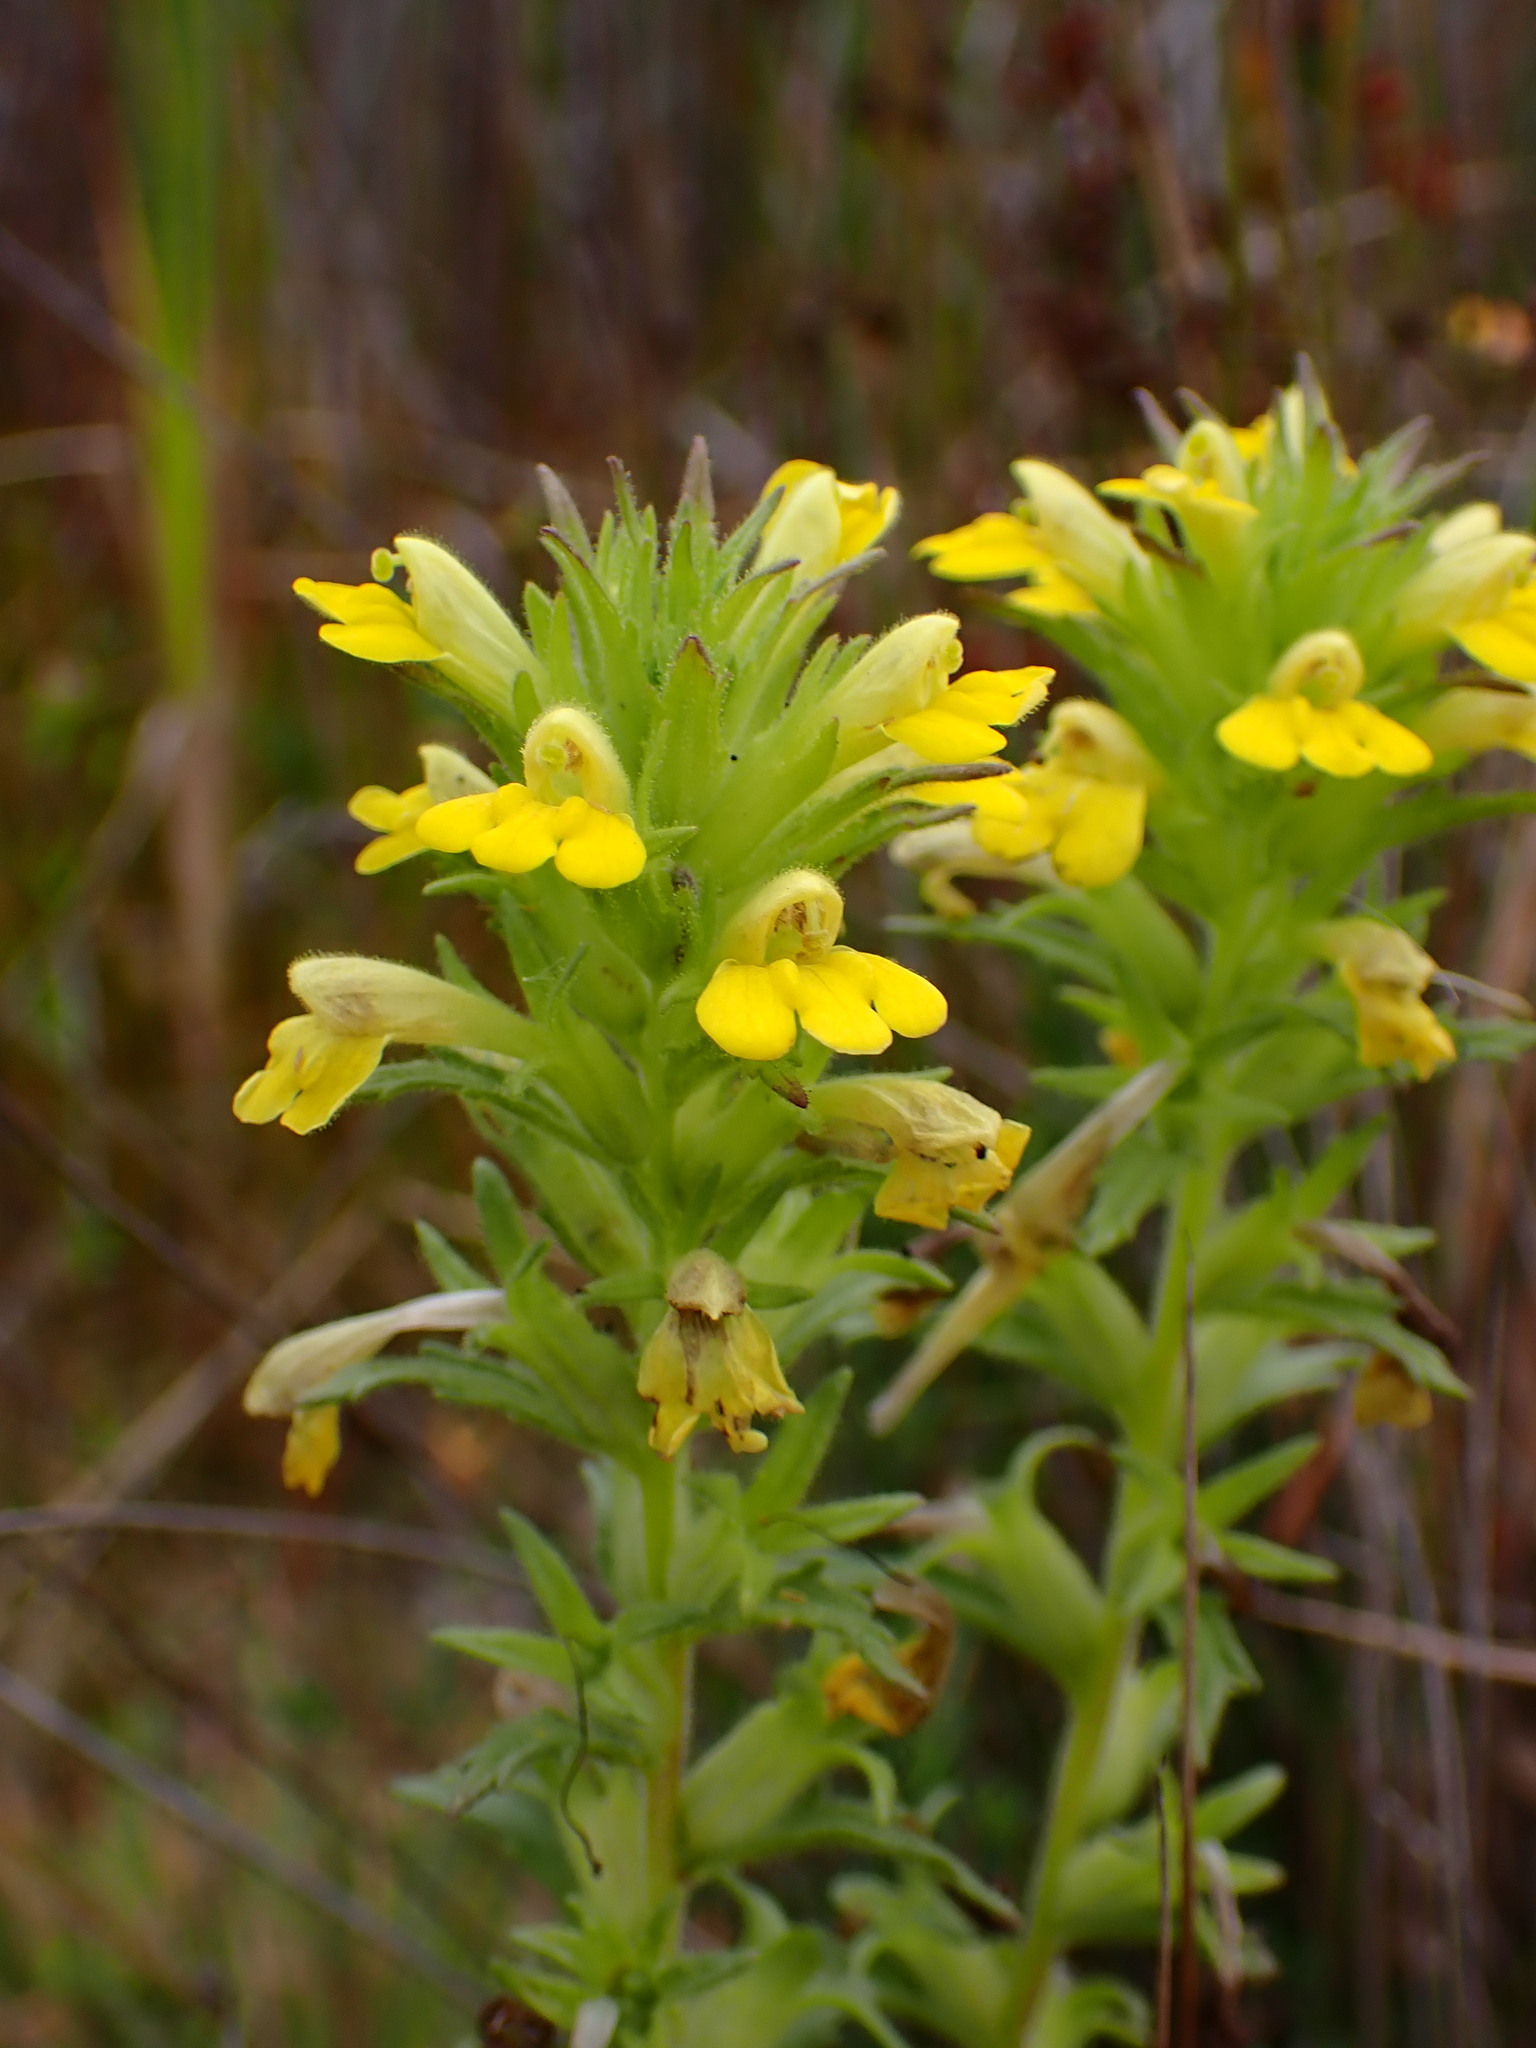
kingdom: Plantae
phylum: Tracheophyta
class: Magnoliopsida
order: Lamiales
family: Orobanchaceae
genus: Bellardia
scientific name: Bellardia viscosa
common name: Sticky parentucellia
